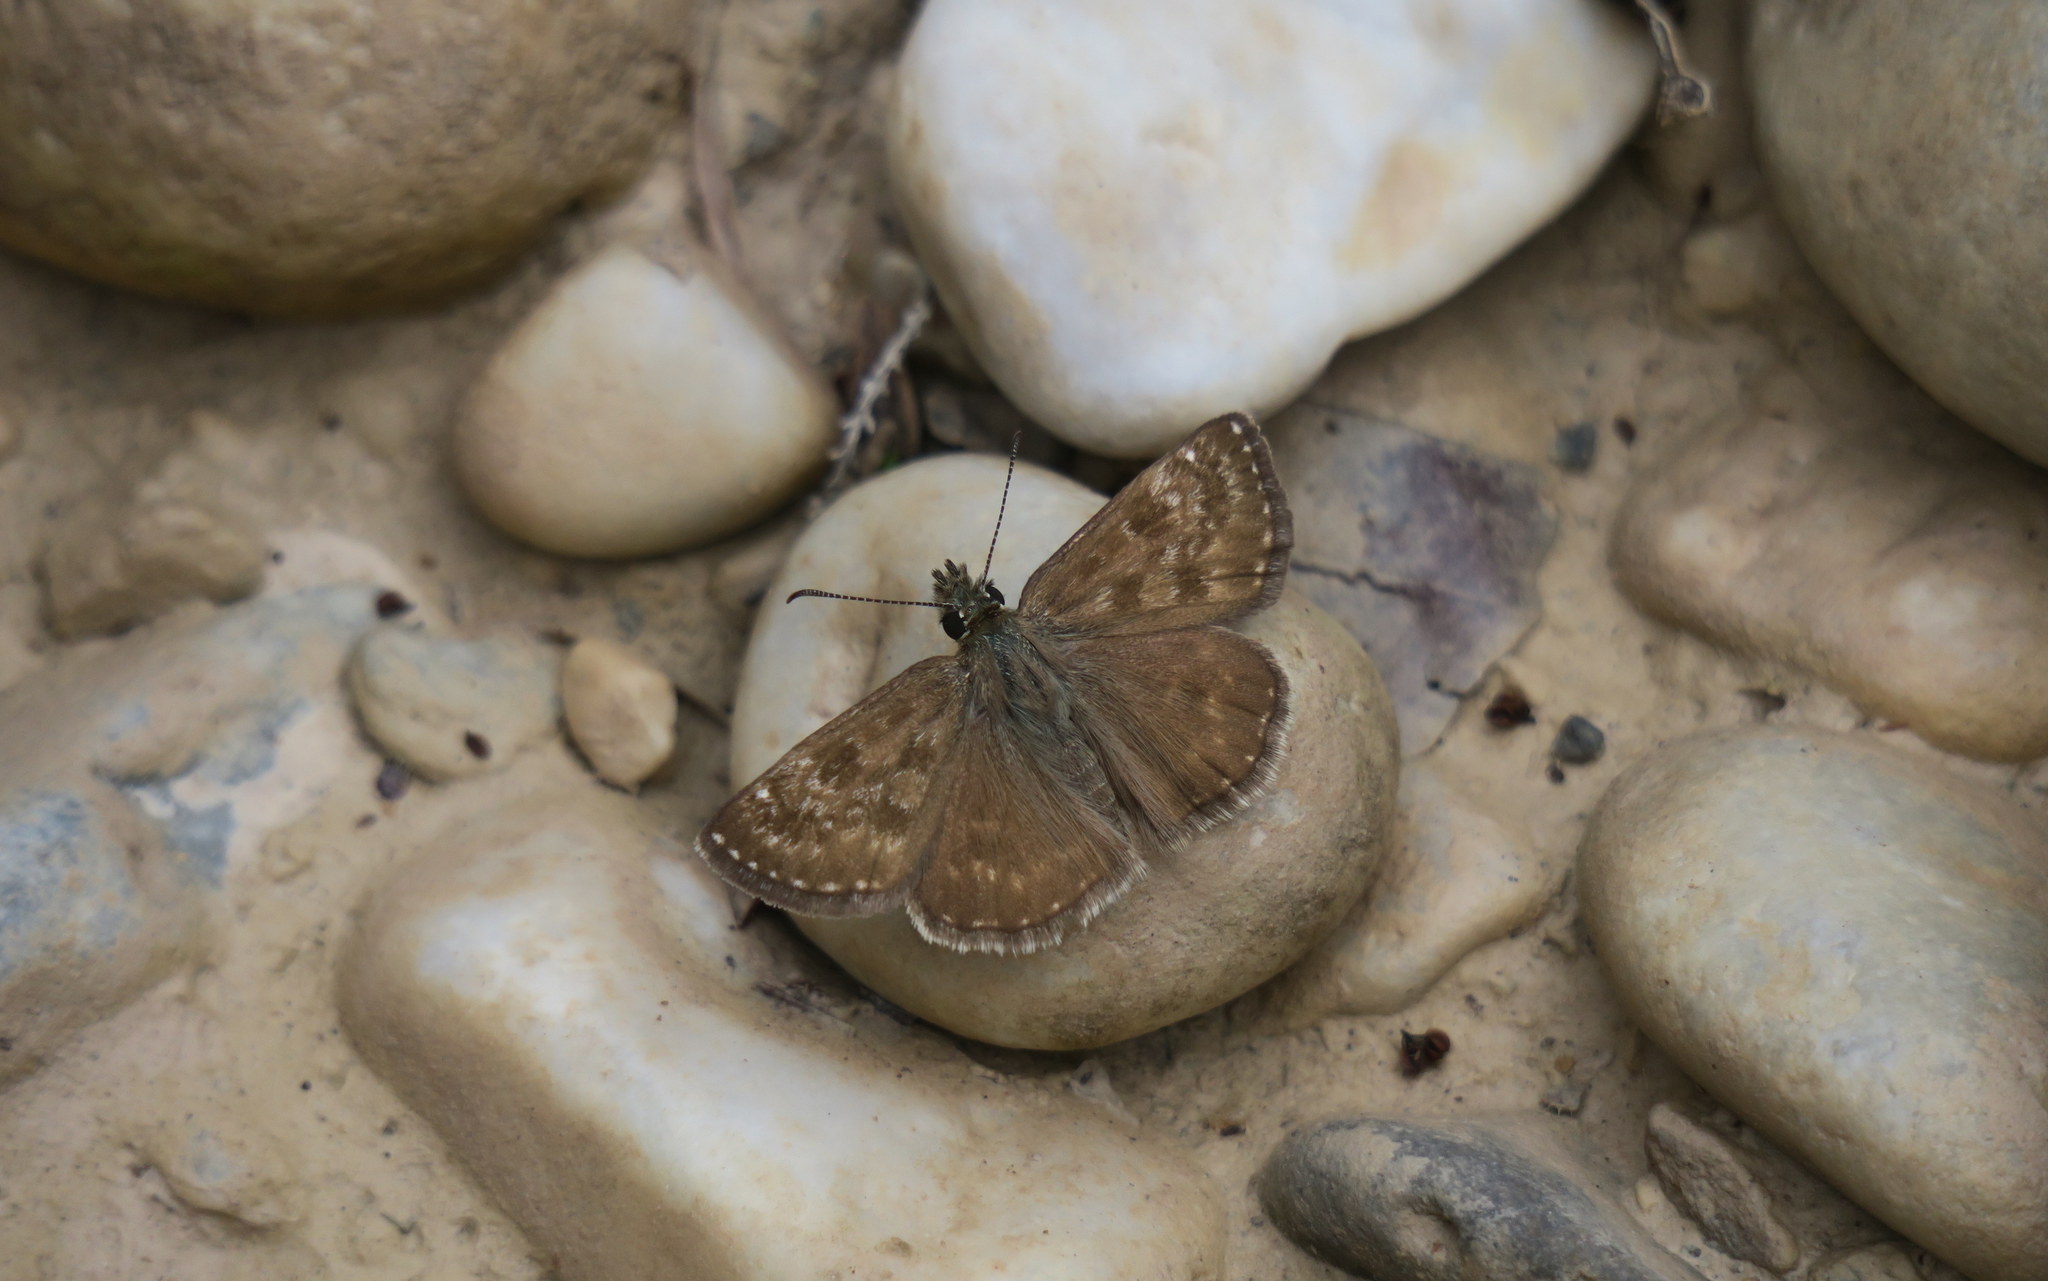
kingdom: Animalia
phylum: Arthropoda
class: Insecta
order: Lepidoptera
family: Hesperiidae
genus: Erynnis
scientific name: Erynnis tages
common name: Dingy skipper
